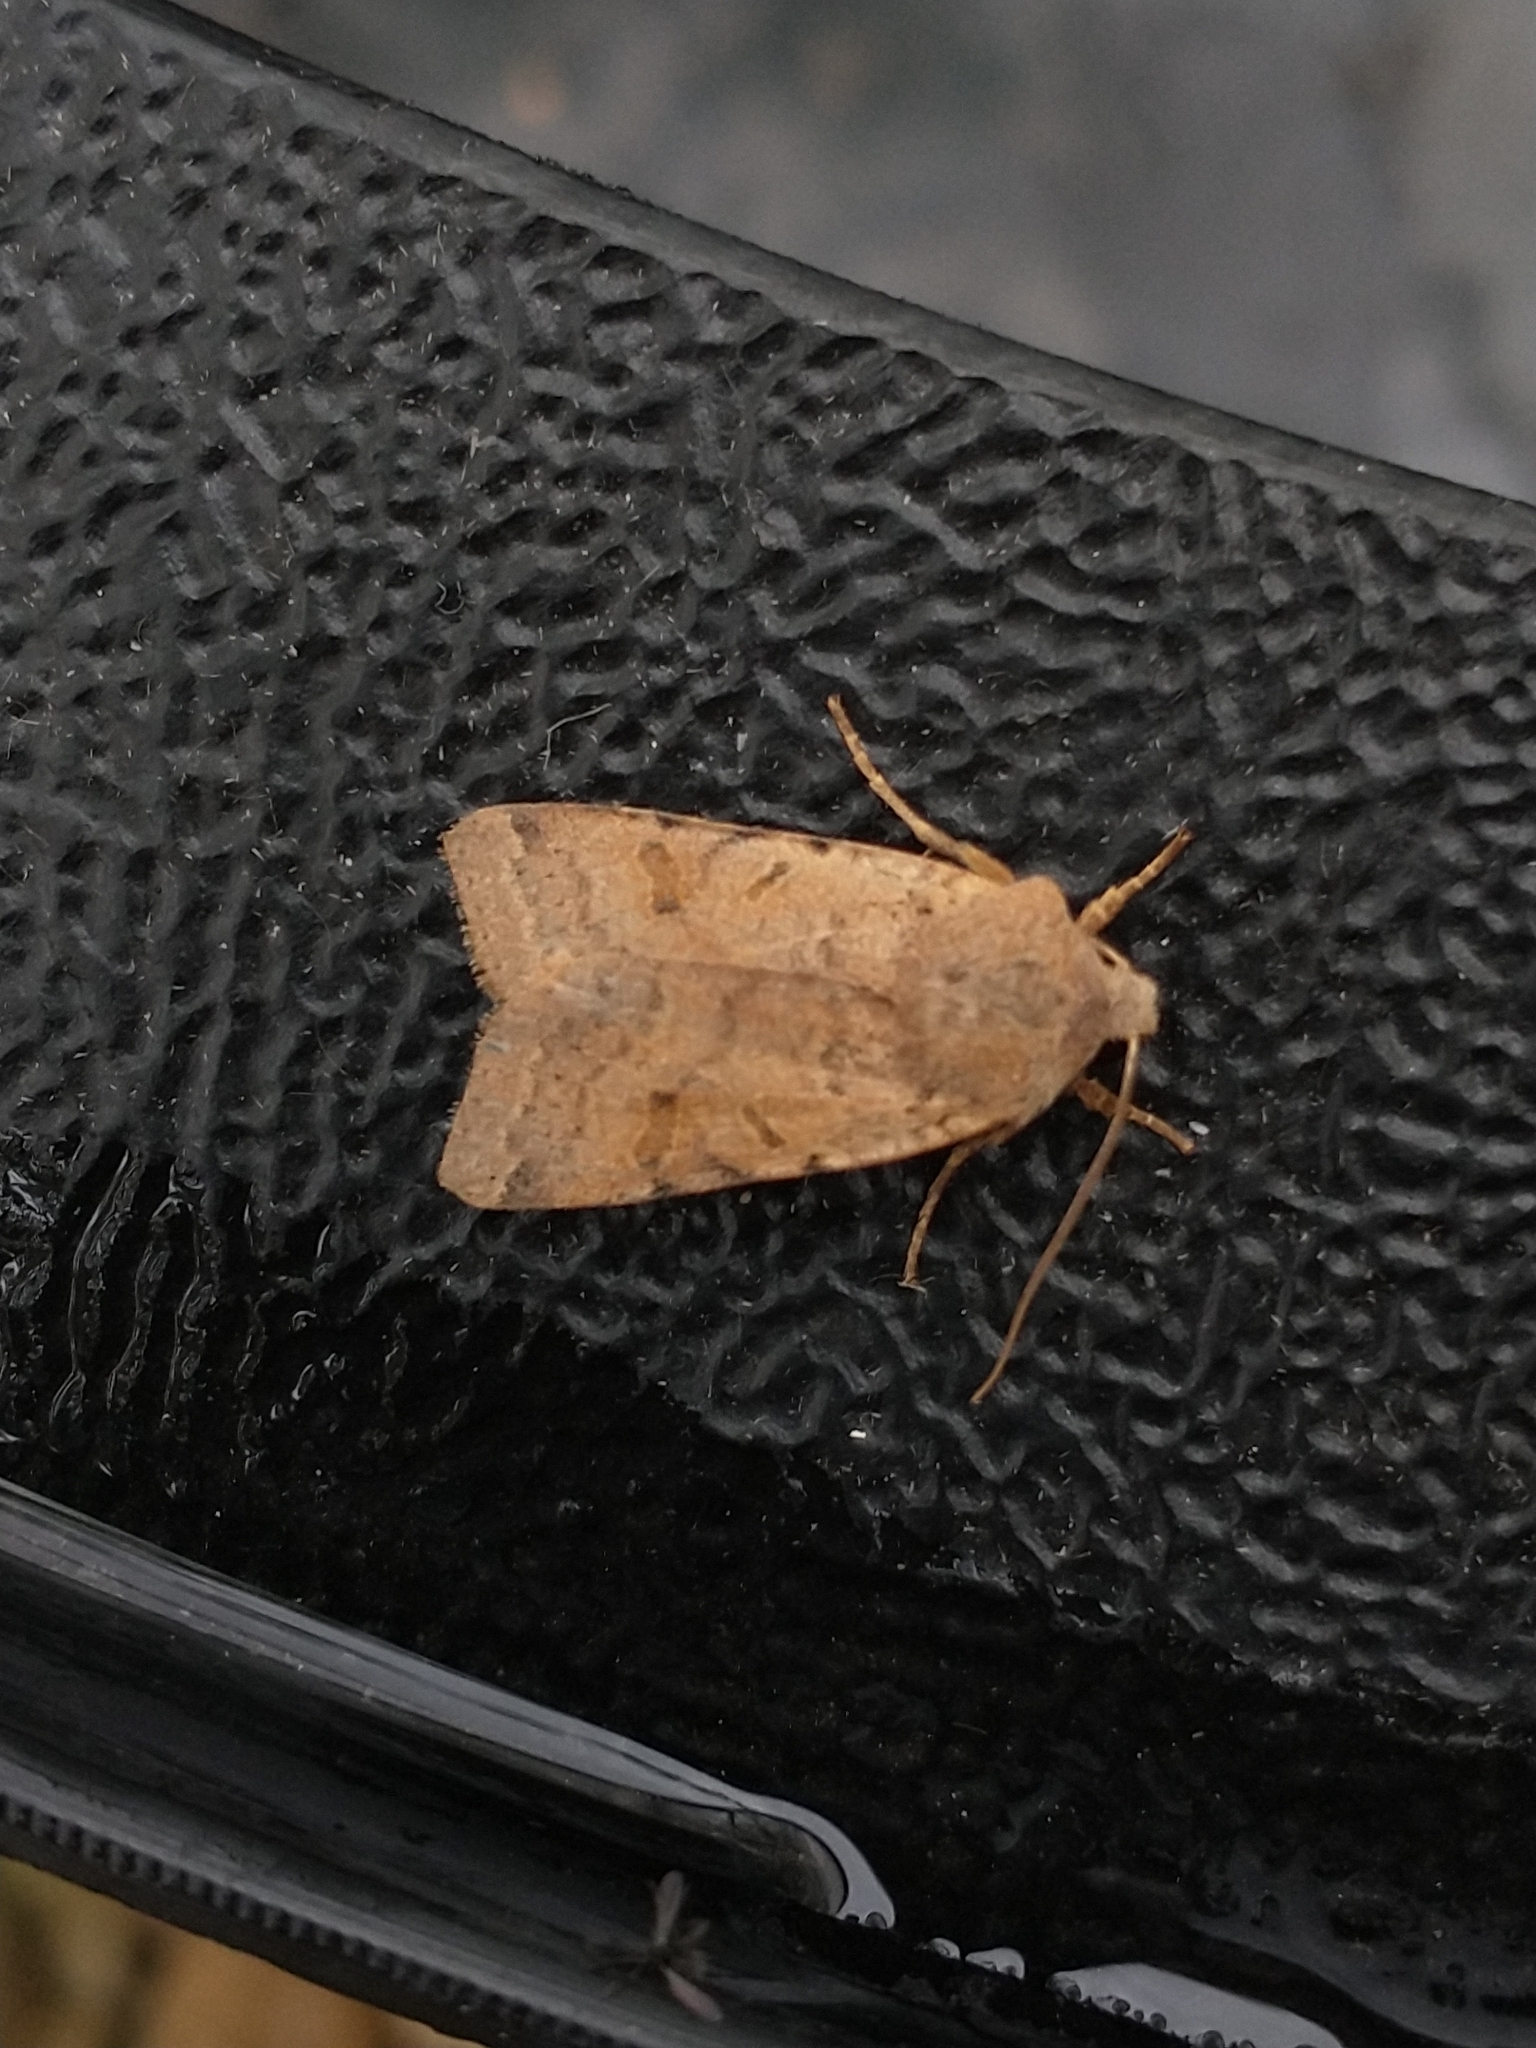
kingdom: Animalia
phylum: Arthropoda
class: Insecta
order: Lepidoptera
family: Noctuidae
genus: Agrochola
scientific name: Agrochola lychnidis
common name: Beaded chestnut
